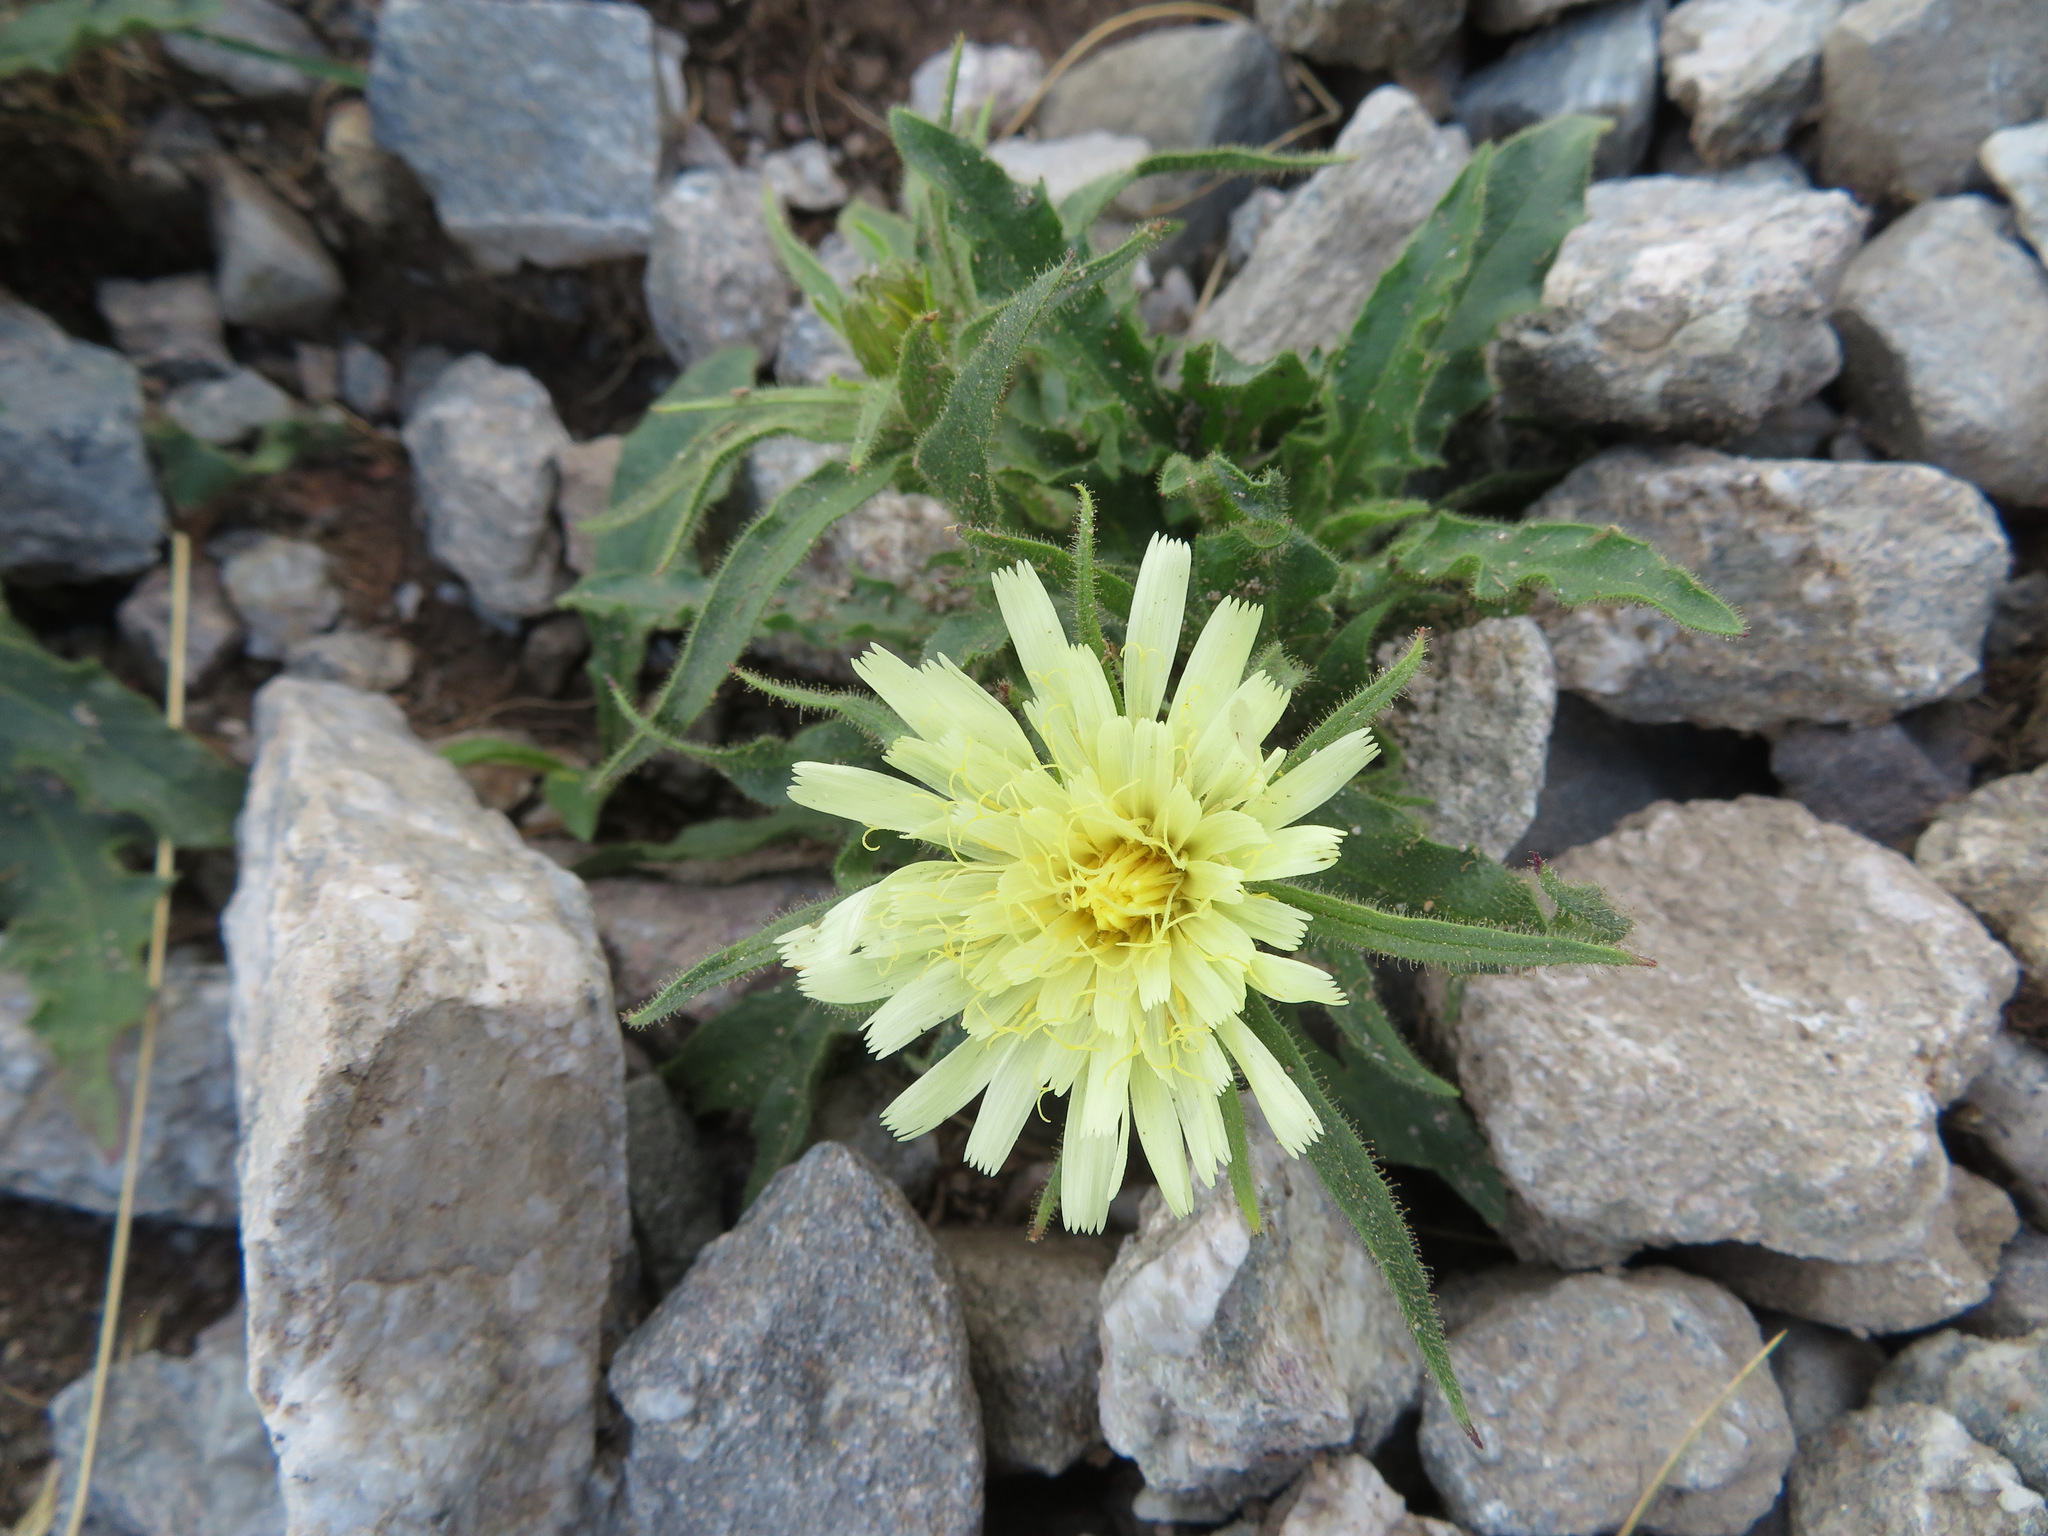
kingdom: Plantae
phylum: Tracheophyta
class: Magnoliopsida
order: Asterales
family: Asteraceae
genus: Schlagintweitia
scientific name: Schlagintweitia intybacea
